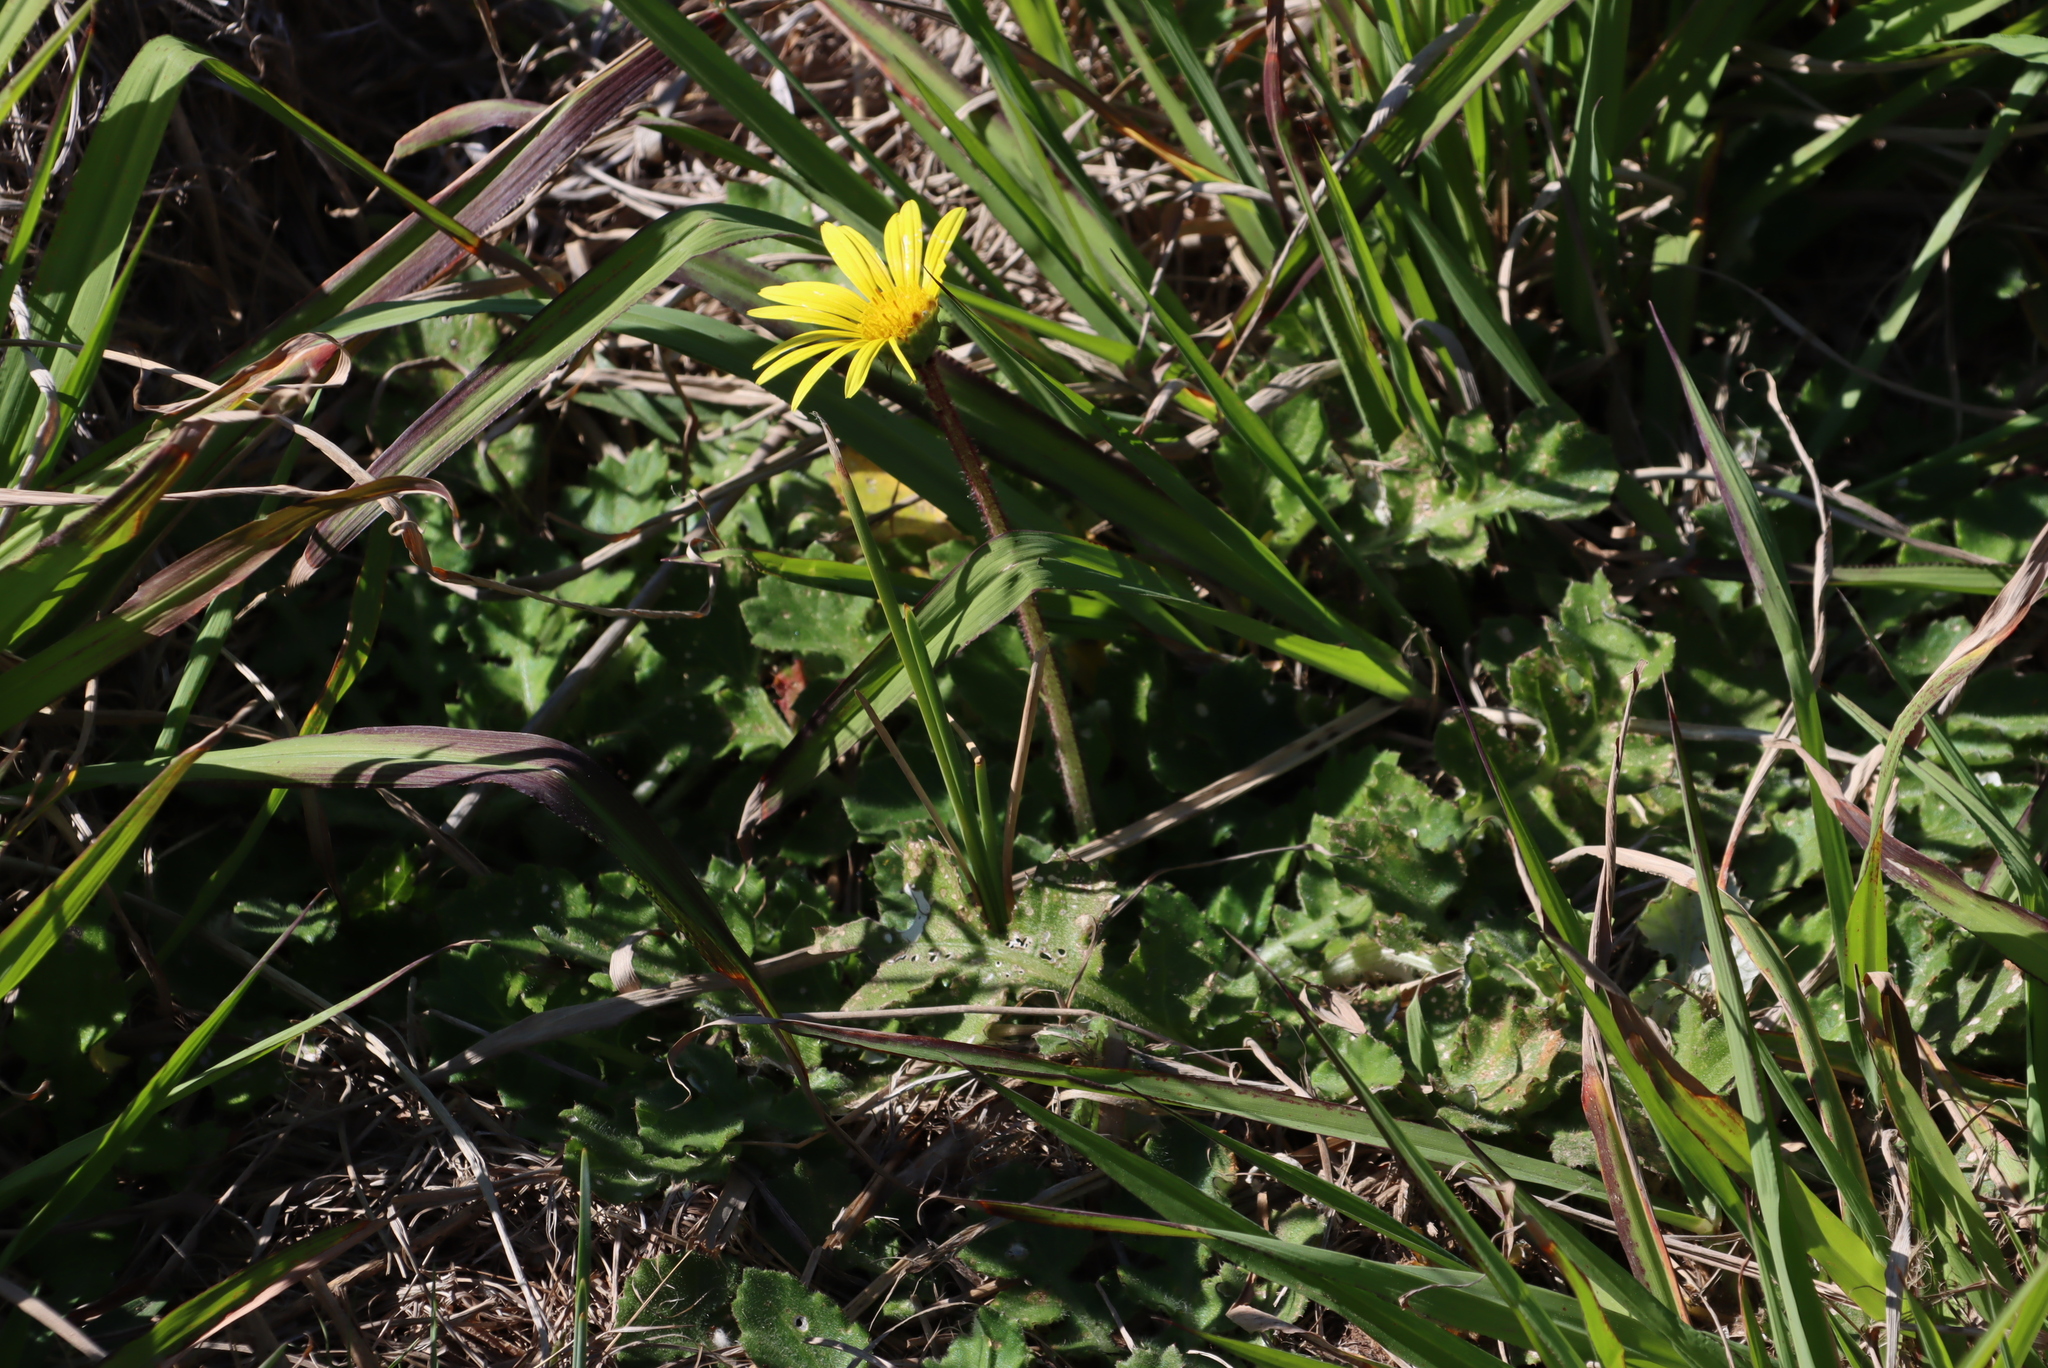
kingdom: Plantae
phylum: Tracheophyta
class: Magnoliopsida
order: Asterales
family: Asteraceae
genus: Arctotheca
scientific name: Arctotheca prostrata
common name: Capeweed
